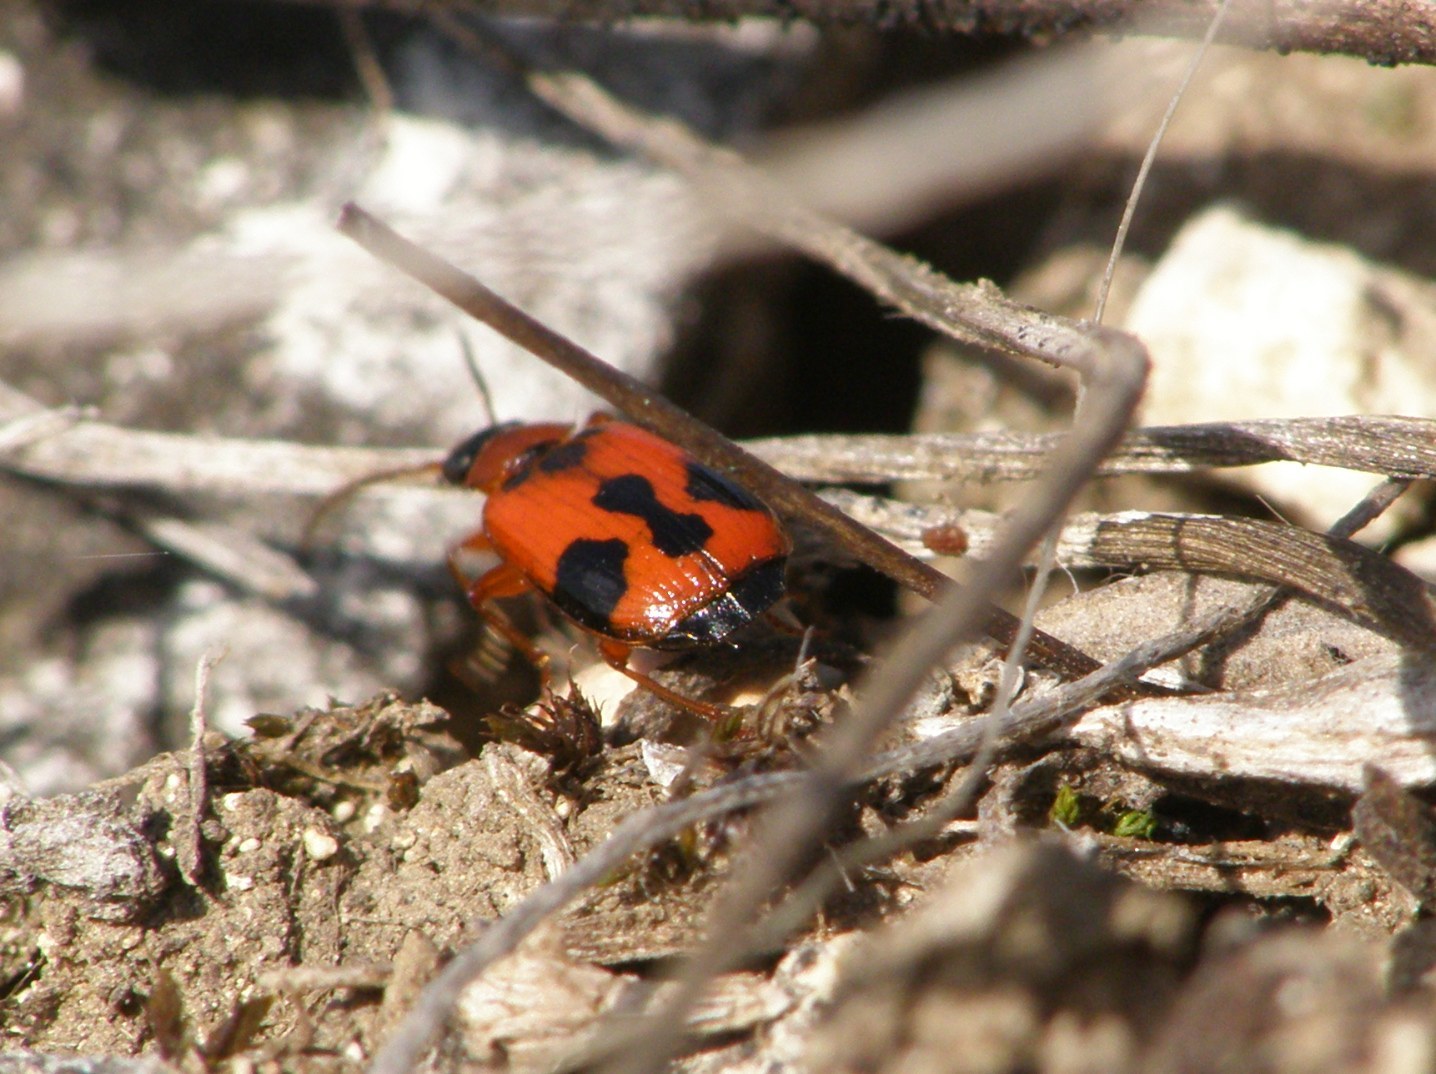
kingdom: Animalia
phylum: Arthropoda
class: Insecta
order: Coleoptera
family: Carabidae
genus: Lebia
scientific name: Lebia trimaculata
